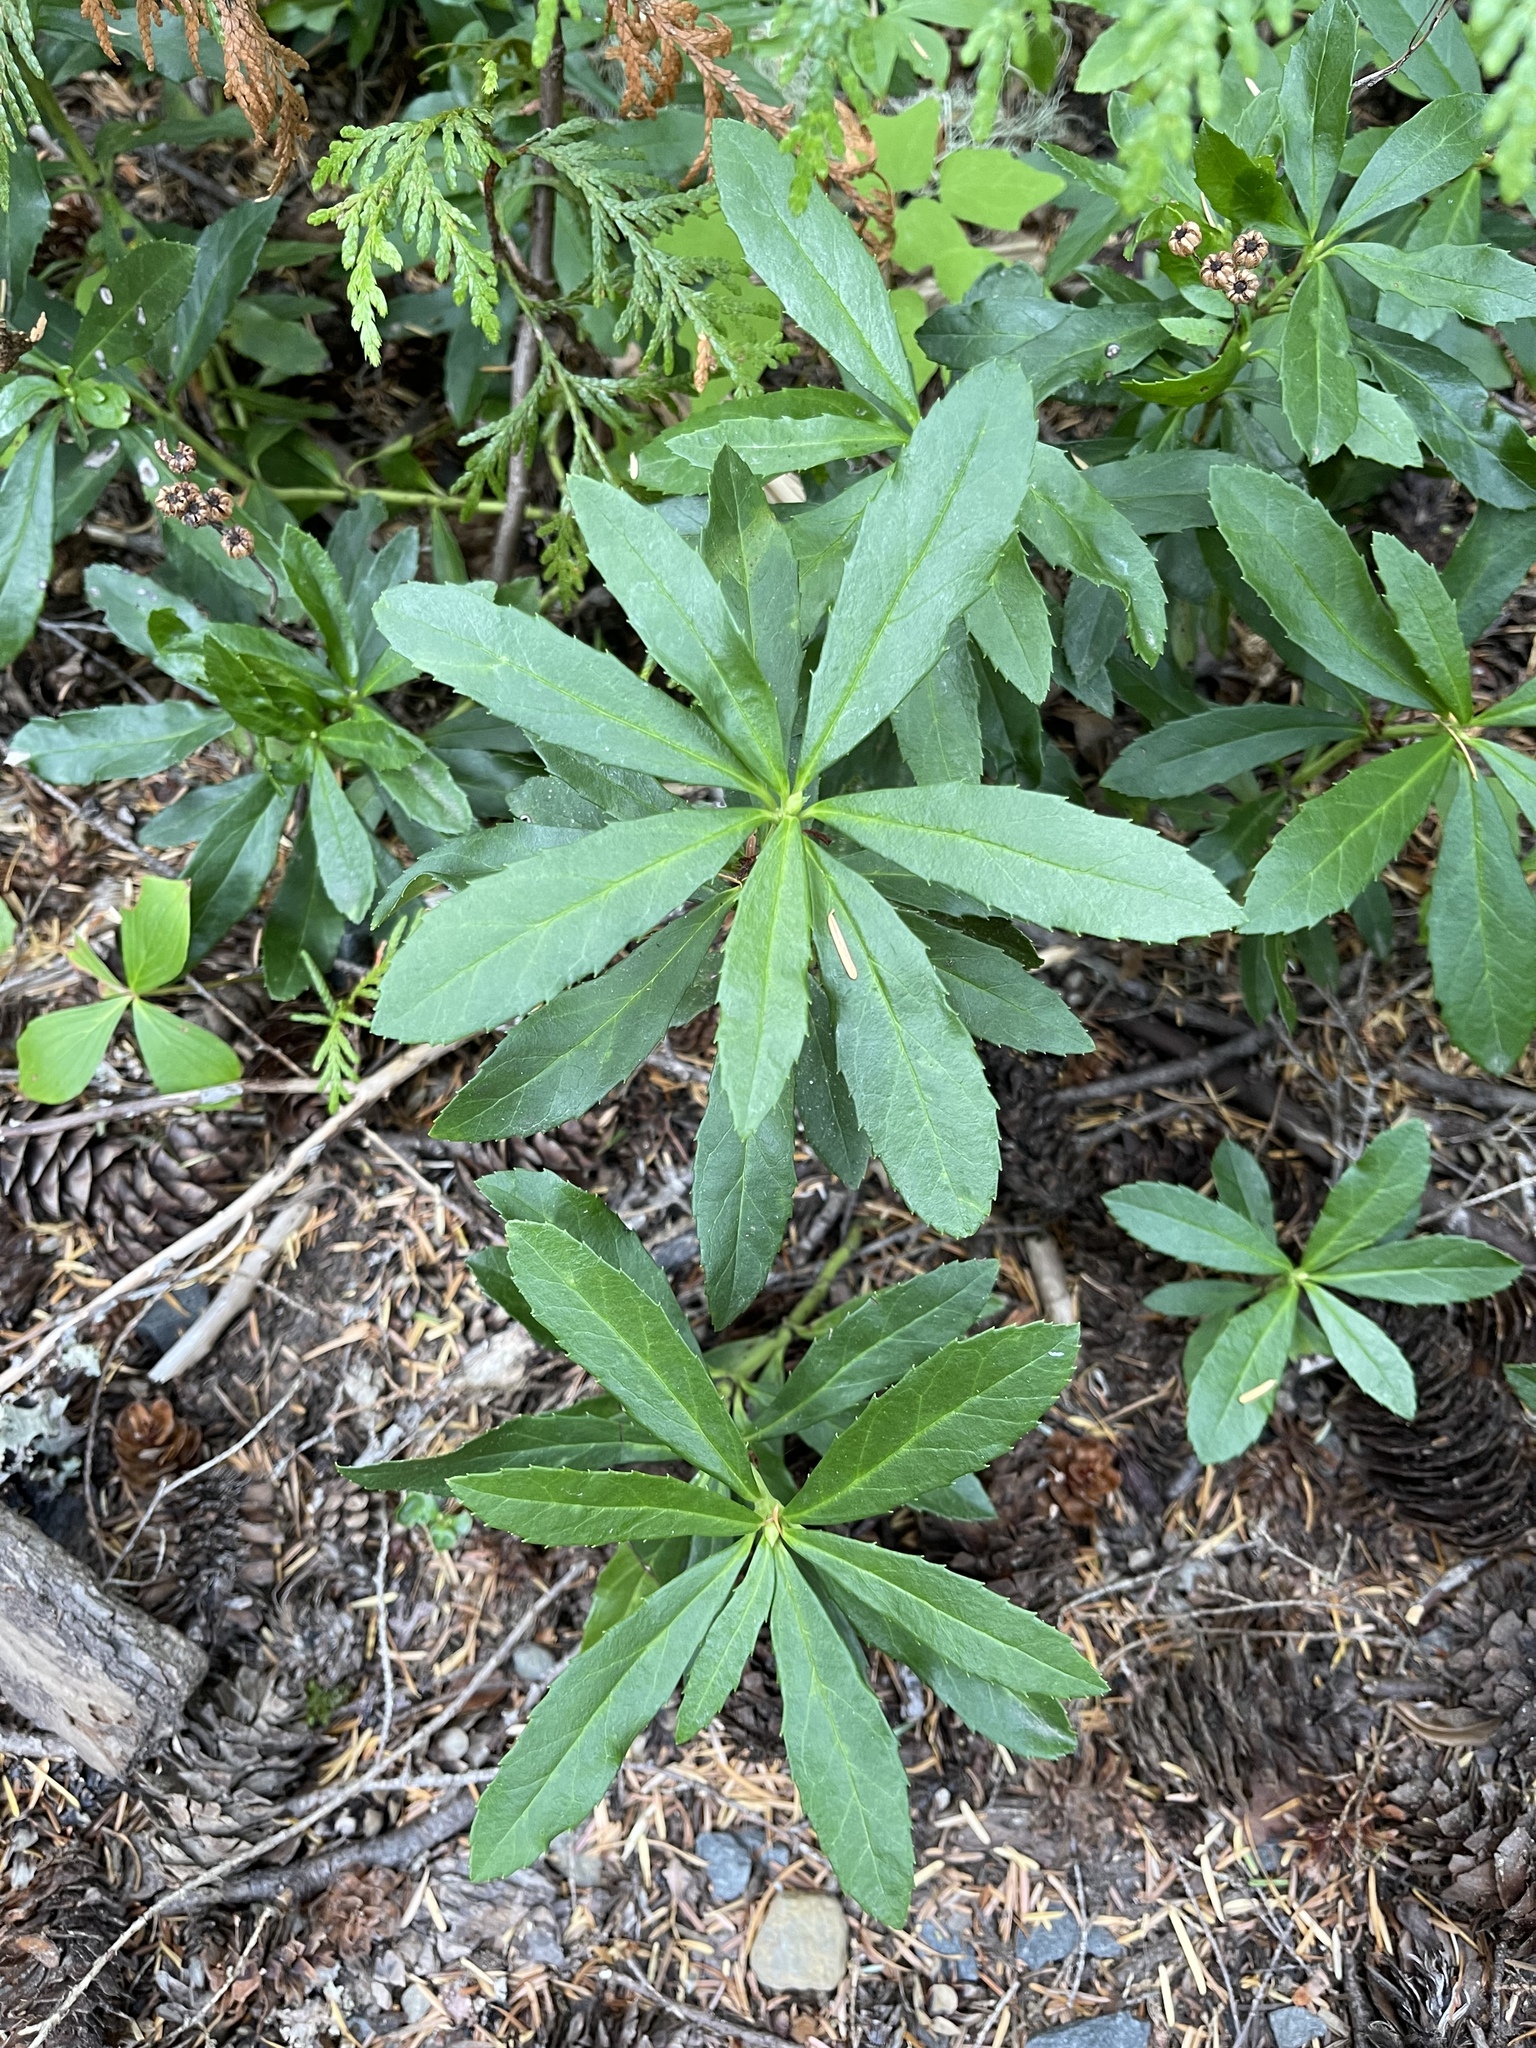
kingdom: Plantae
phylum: Tracheophyta
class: Magnoliopsida
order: Ericales
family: Ericaceae
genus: Chimaphila
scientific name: Chimaphila umbellata
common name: Pipsissewa
